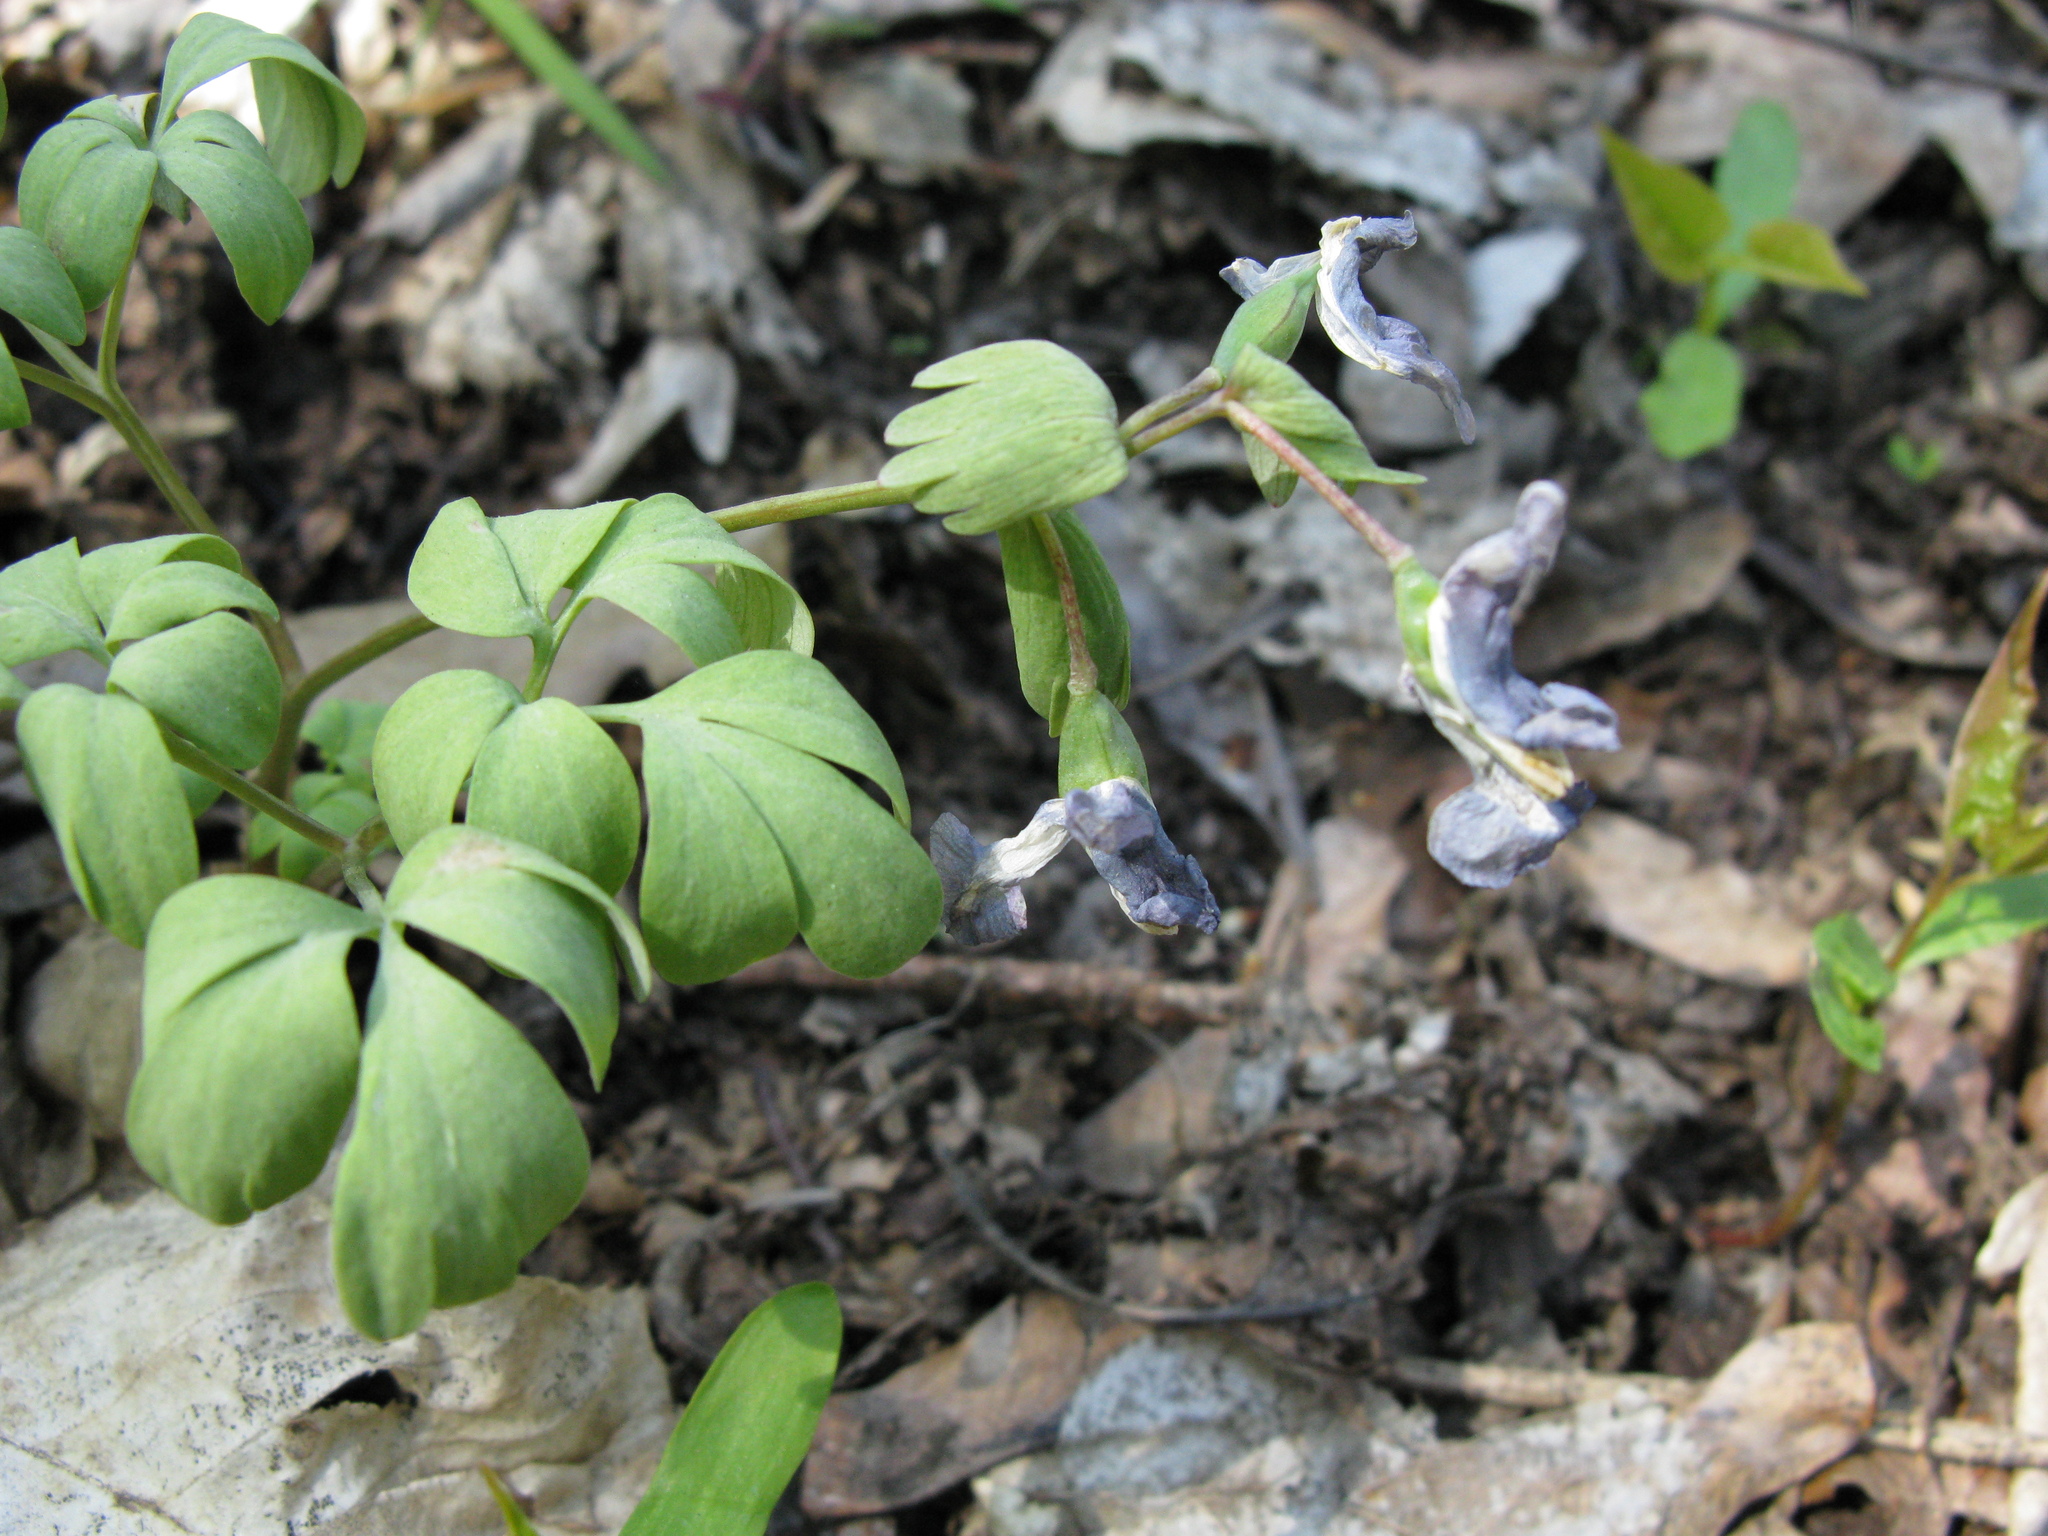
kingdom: Plantae
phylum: Tracheophyta
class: Magnoliopsida
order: Ranunculales
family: Papaveraceae
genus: Corydalis
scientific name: Corydalis solida
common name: Bird-in-a-bush
